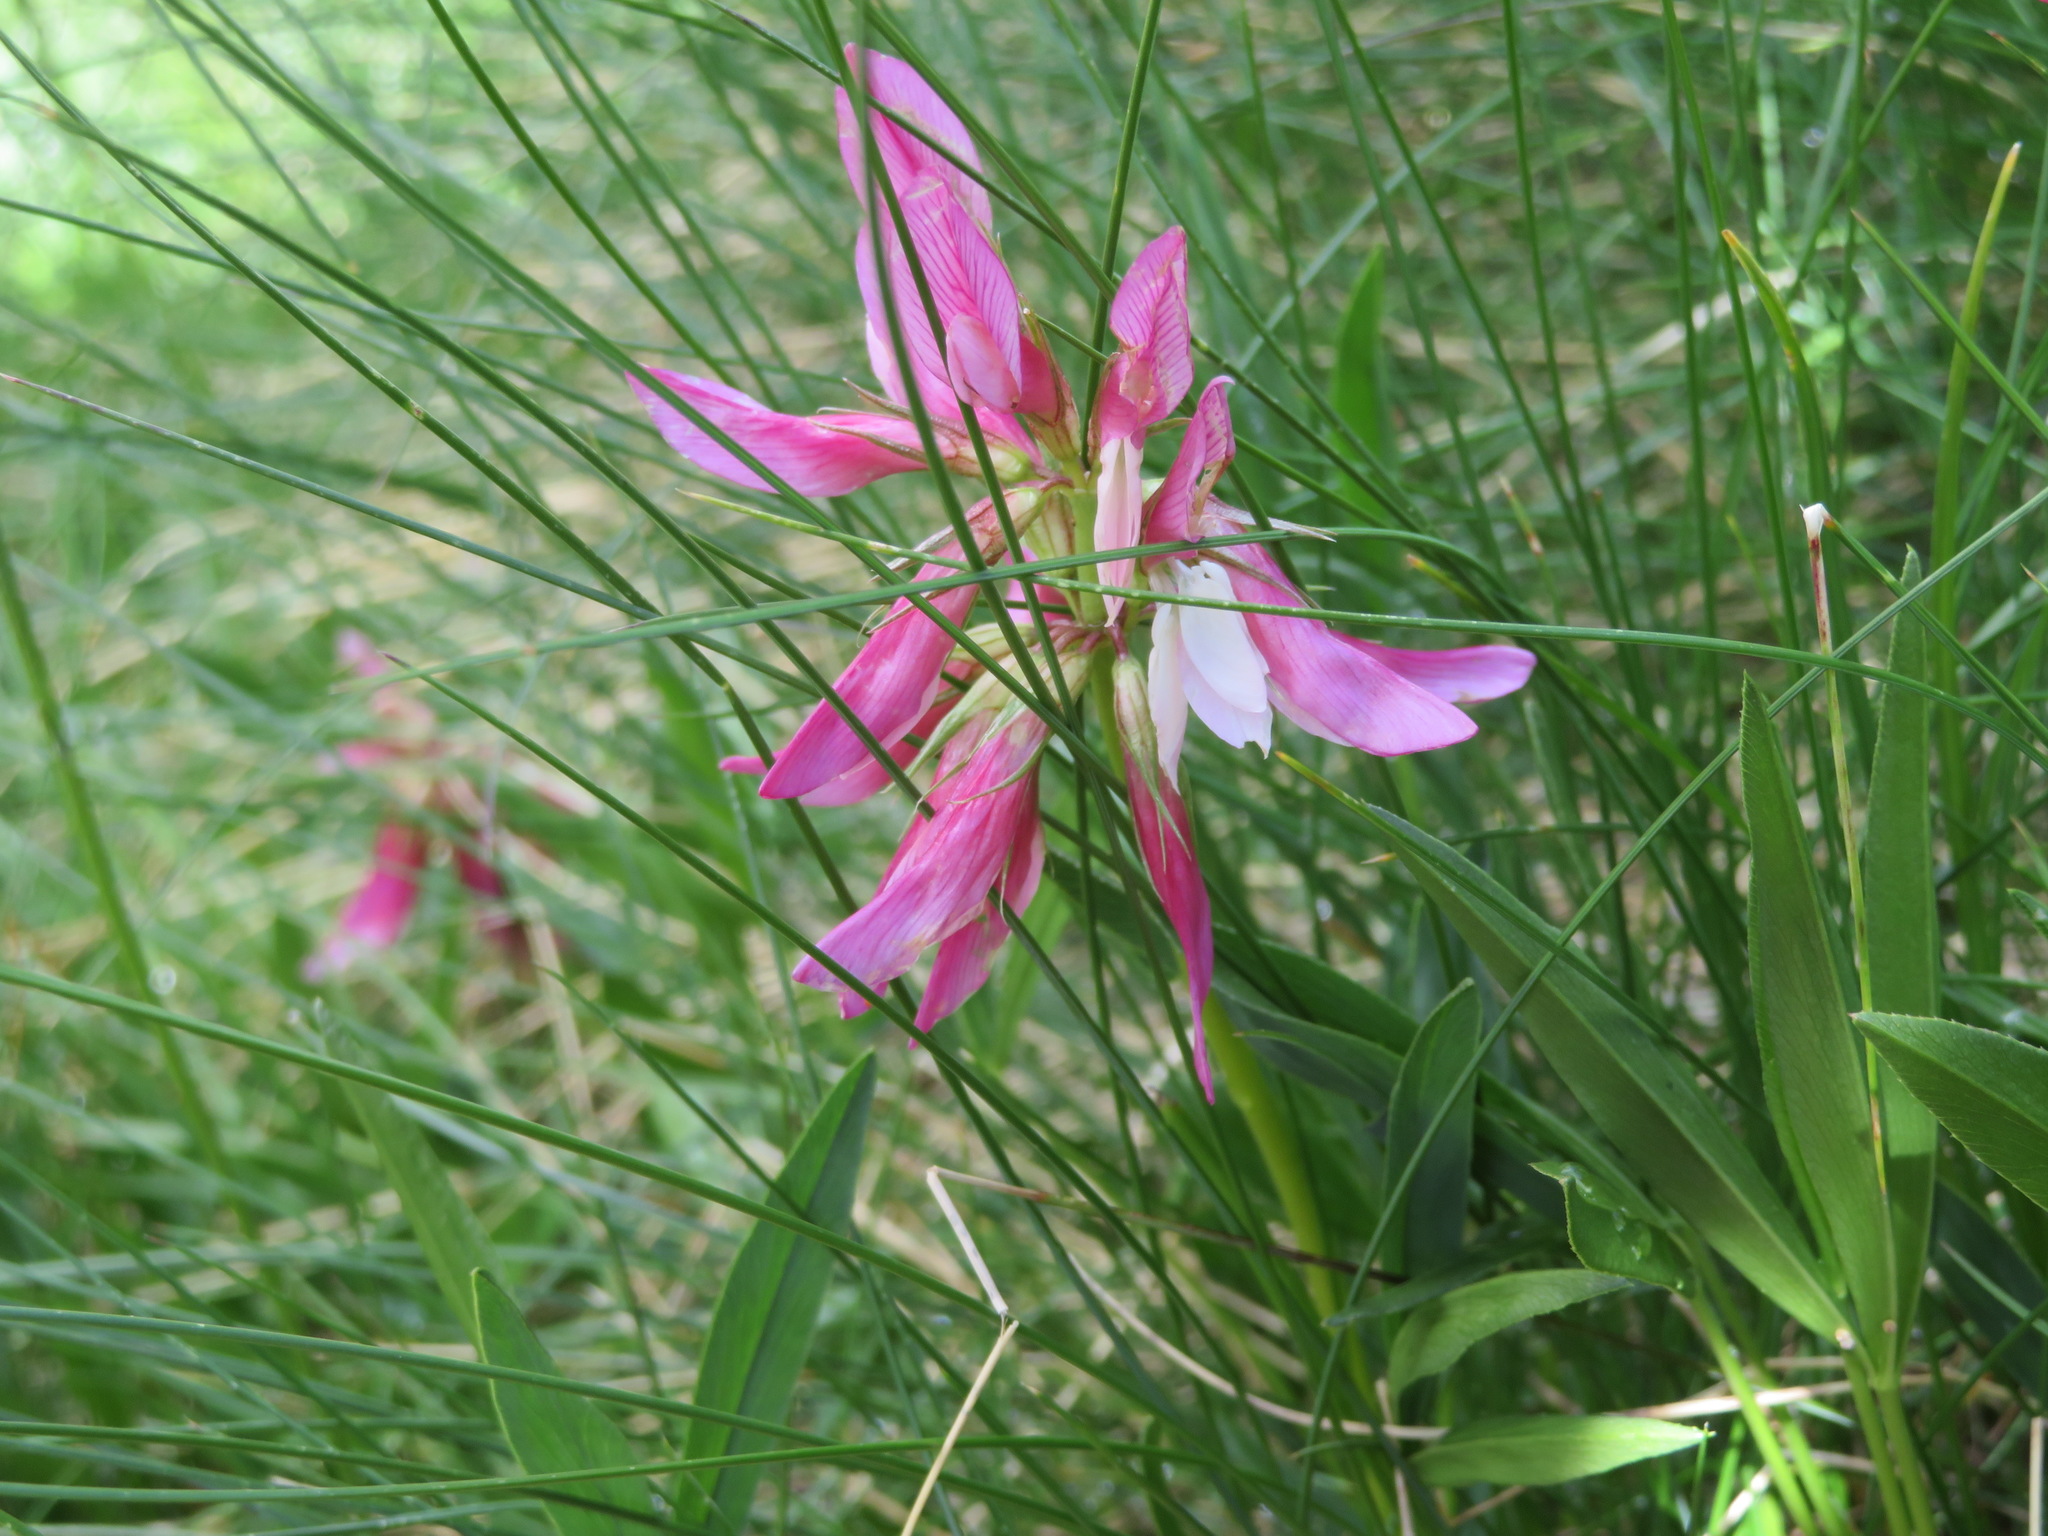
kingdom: Plantae
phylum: Tracheophyta
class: Magnoliopsida
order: Fabales
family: Fabaceae
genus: Trifolium
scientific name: Trifolium alpinum
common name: Alpine clover
